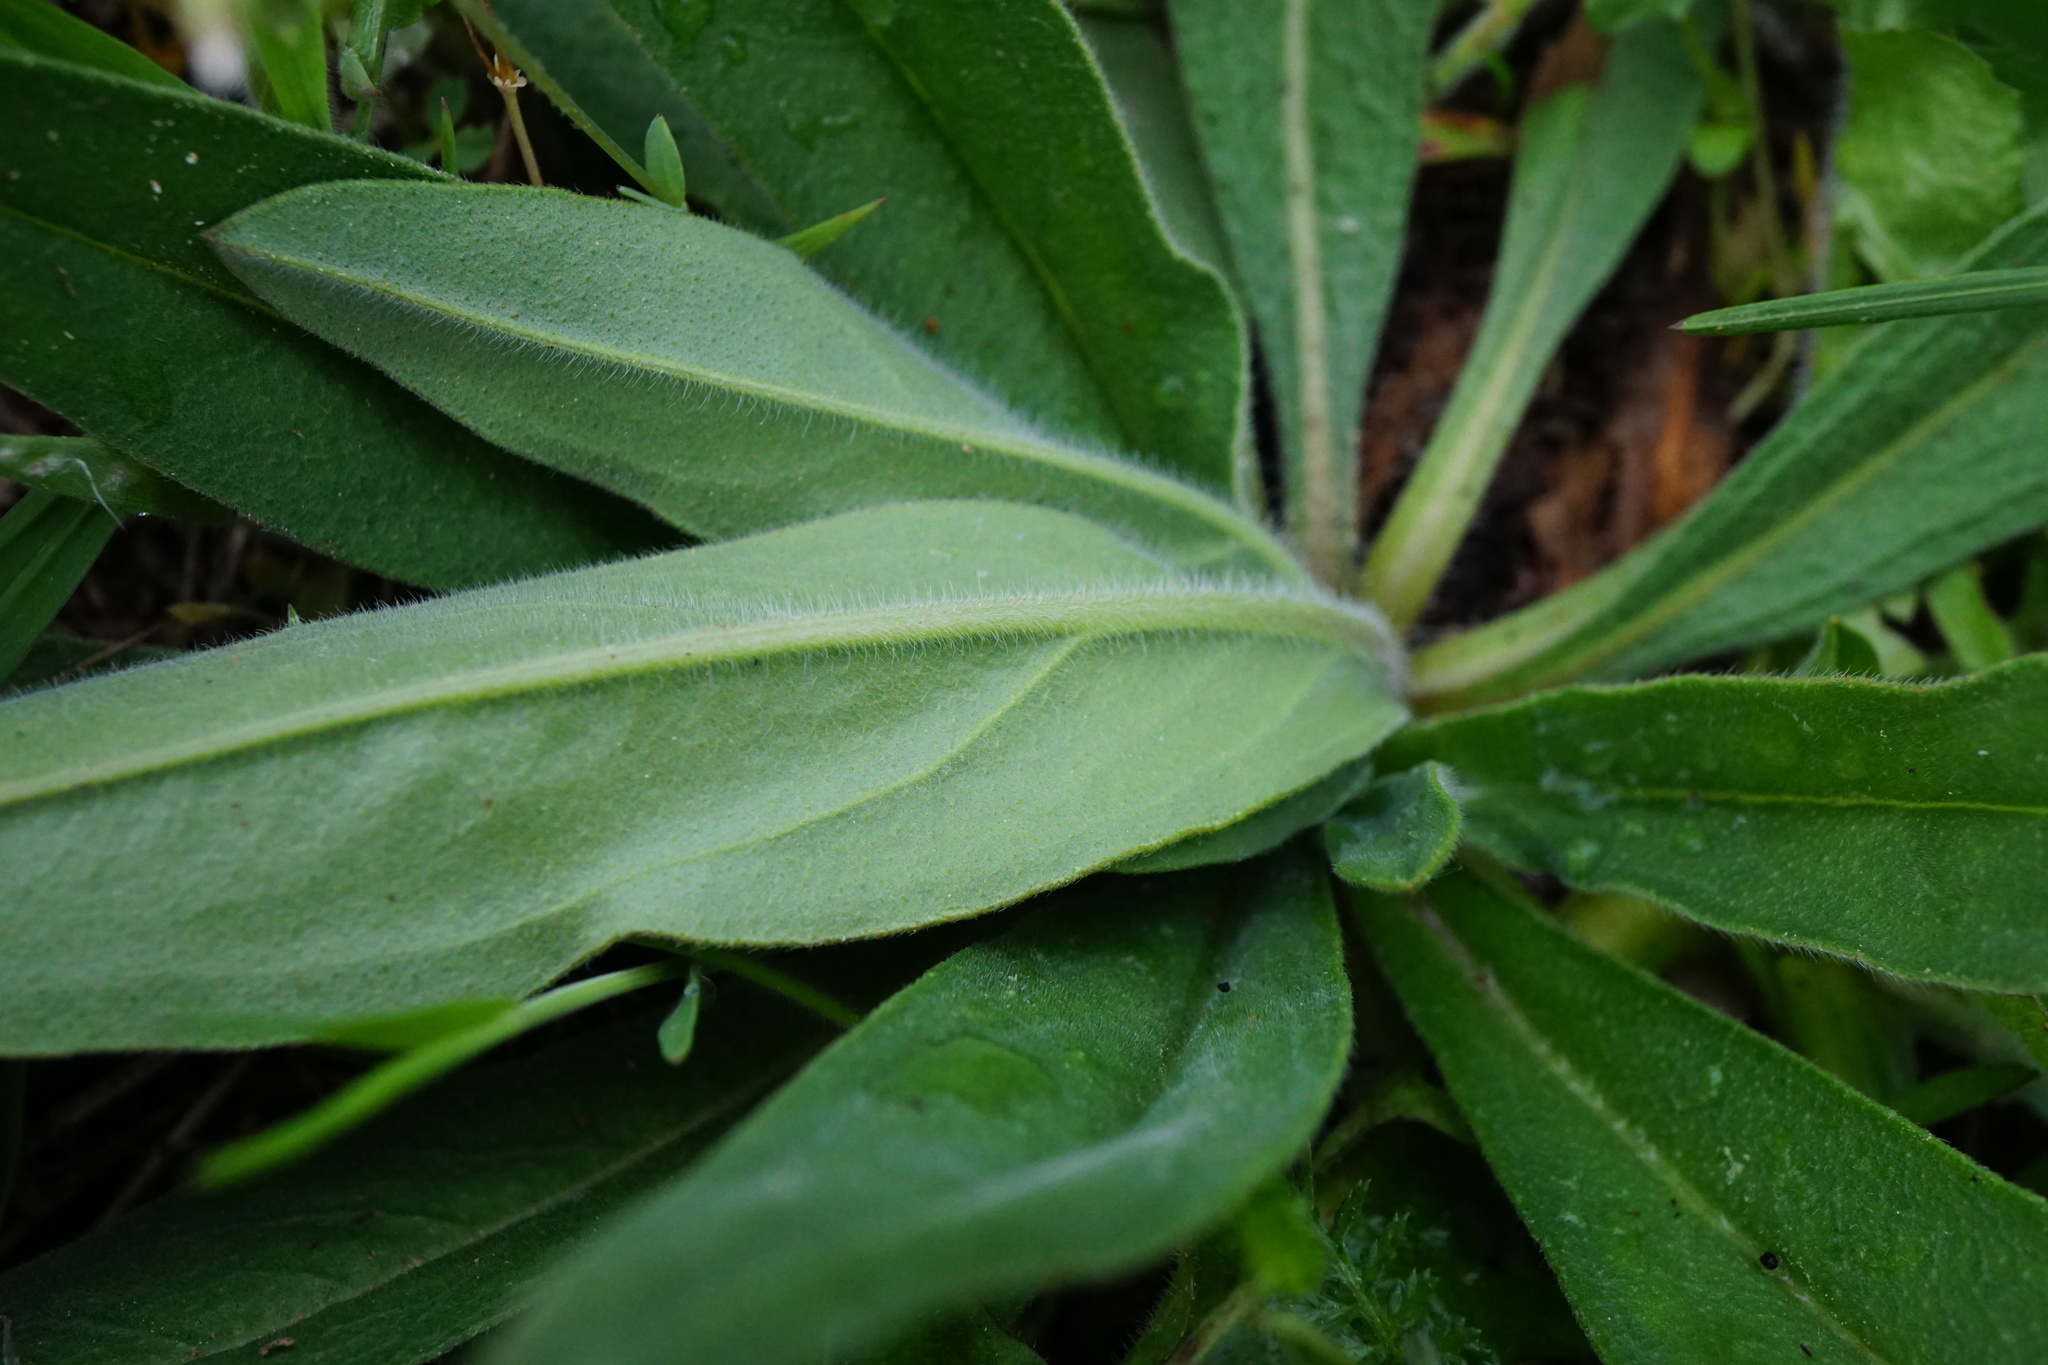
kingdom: Plantae
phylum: Tracheophyta
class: Magnoliopsida
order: Boraginales
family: Boraginaceae
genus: Echium
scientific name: Echium vulgare
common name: Common viper's bugloss
